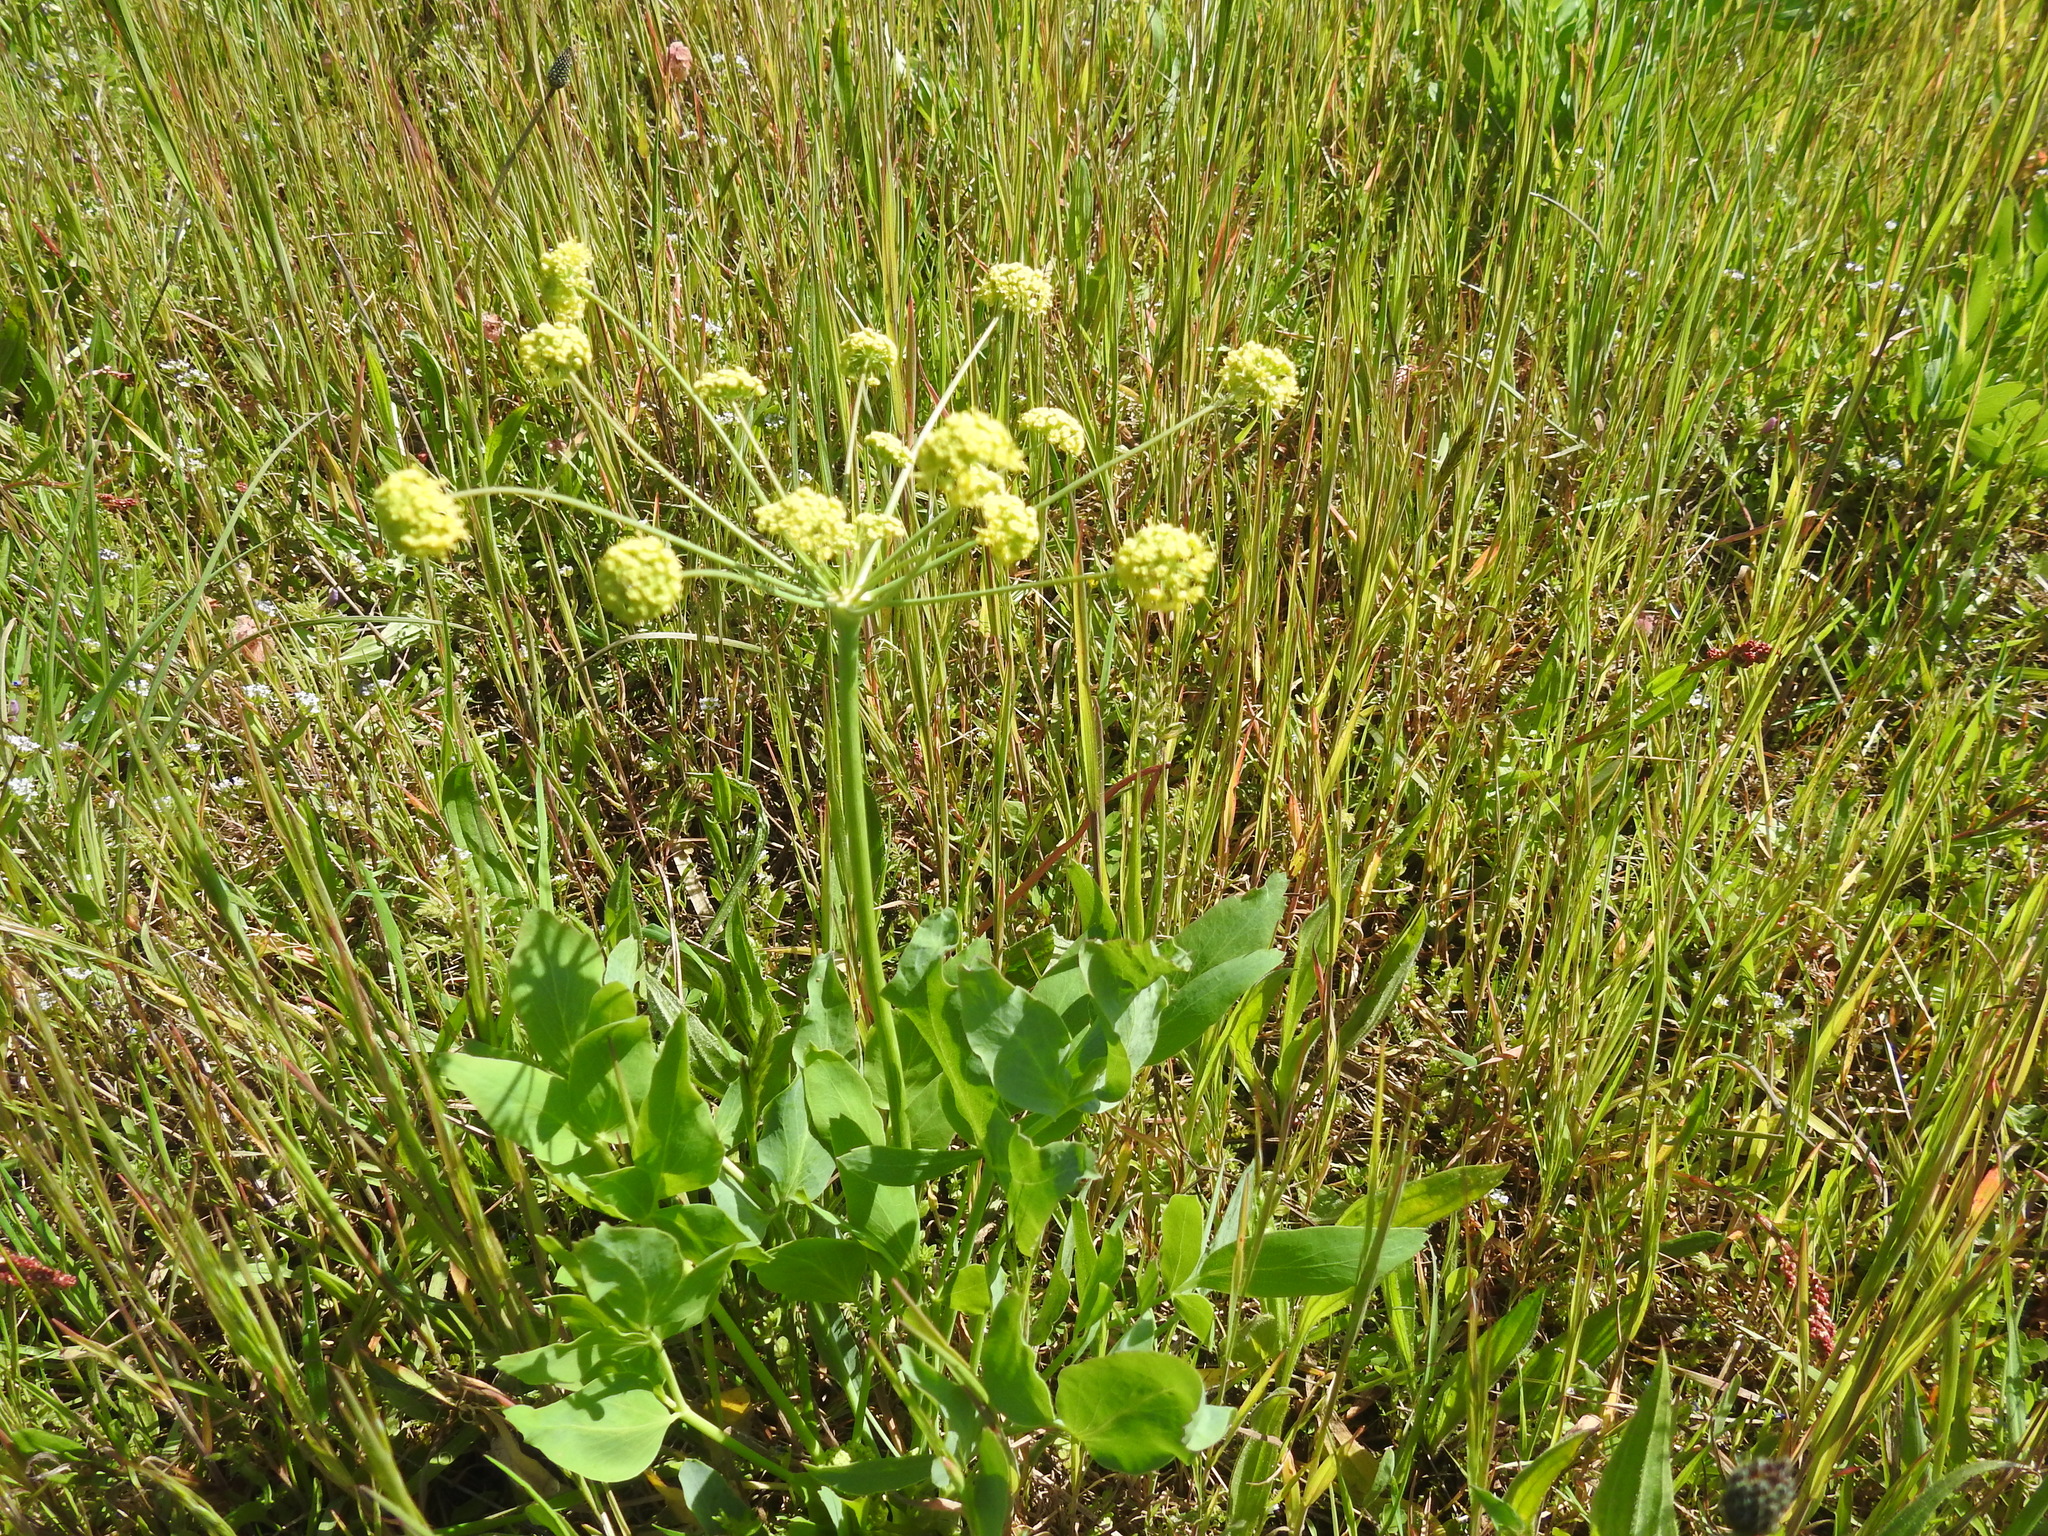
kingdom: Plantae
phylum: Tracheophyta
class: Magnoliopsida
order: Apiales
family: Apiaceae
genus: Lomatium
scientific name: Lomatium nudicaule
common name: Pestle lomatium
